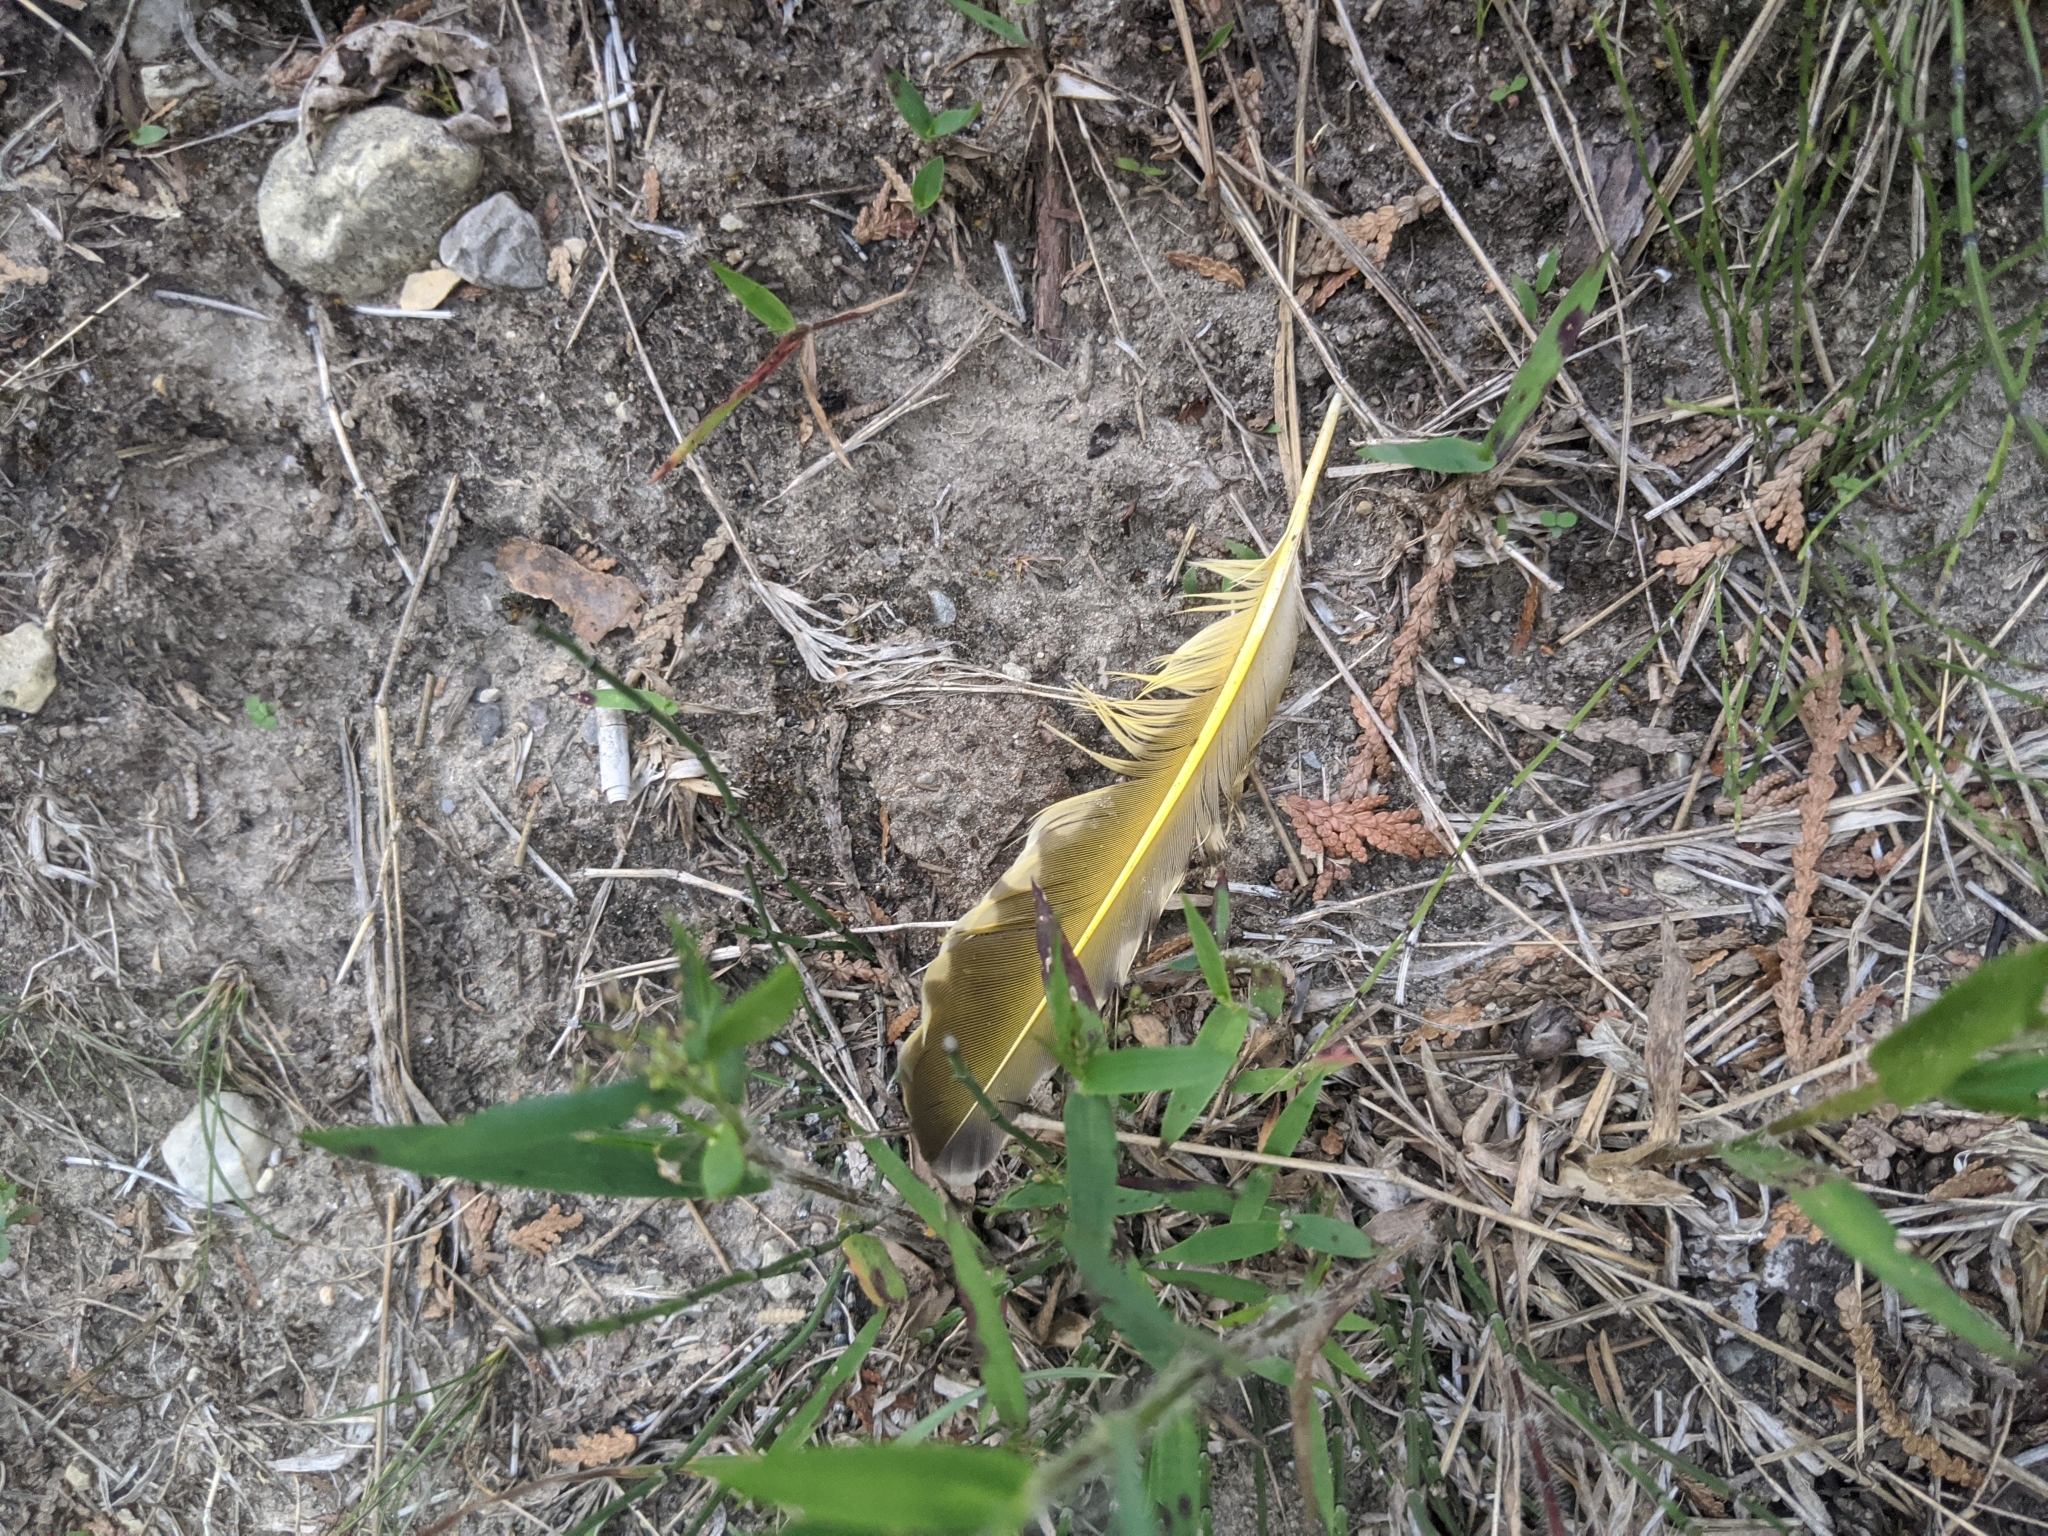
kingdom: Animalia
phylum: Chordata
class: Aves
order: Piciformes
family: Picidae
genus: Colaptes
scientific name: Colaptes auratus
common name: Northern flicker
